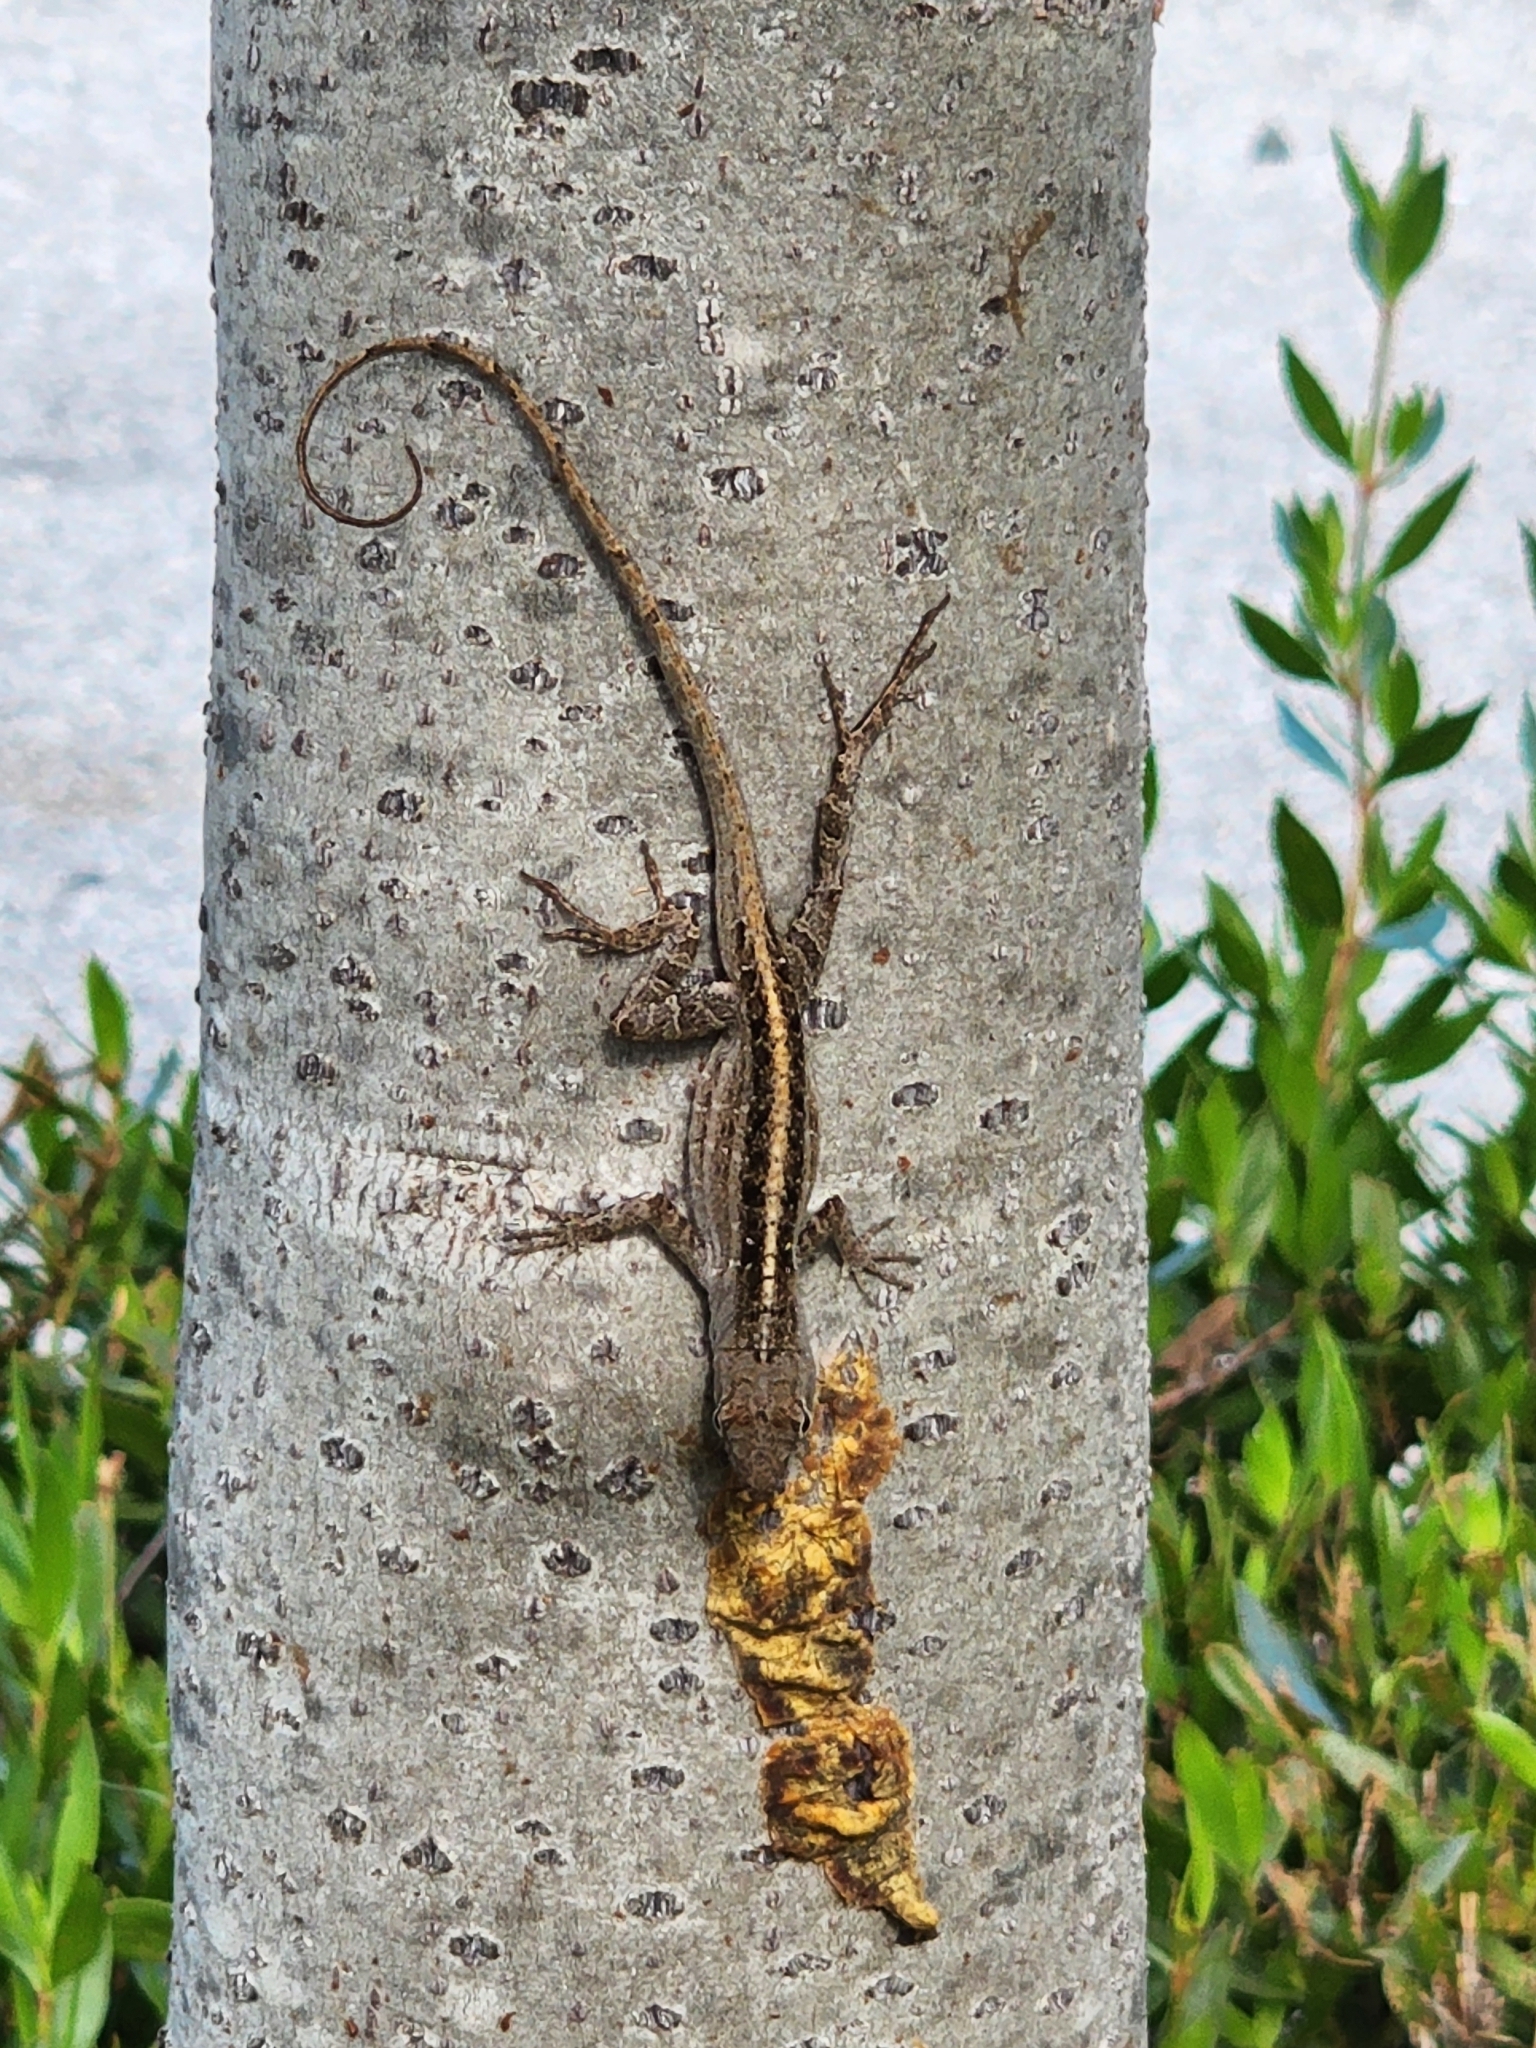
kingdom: Animalia
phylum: Chordata
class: Squamata
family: Dactyloidae
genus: Anolis
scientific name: Anolis sagrei
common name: Brown anole
